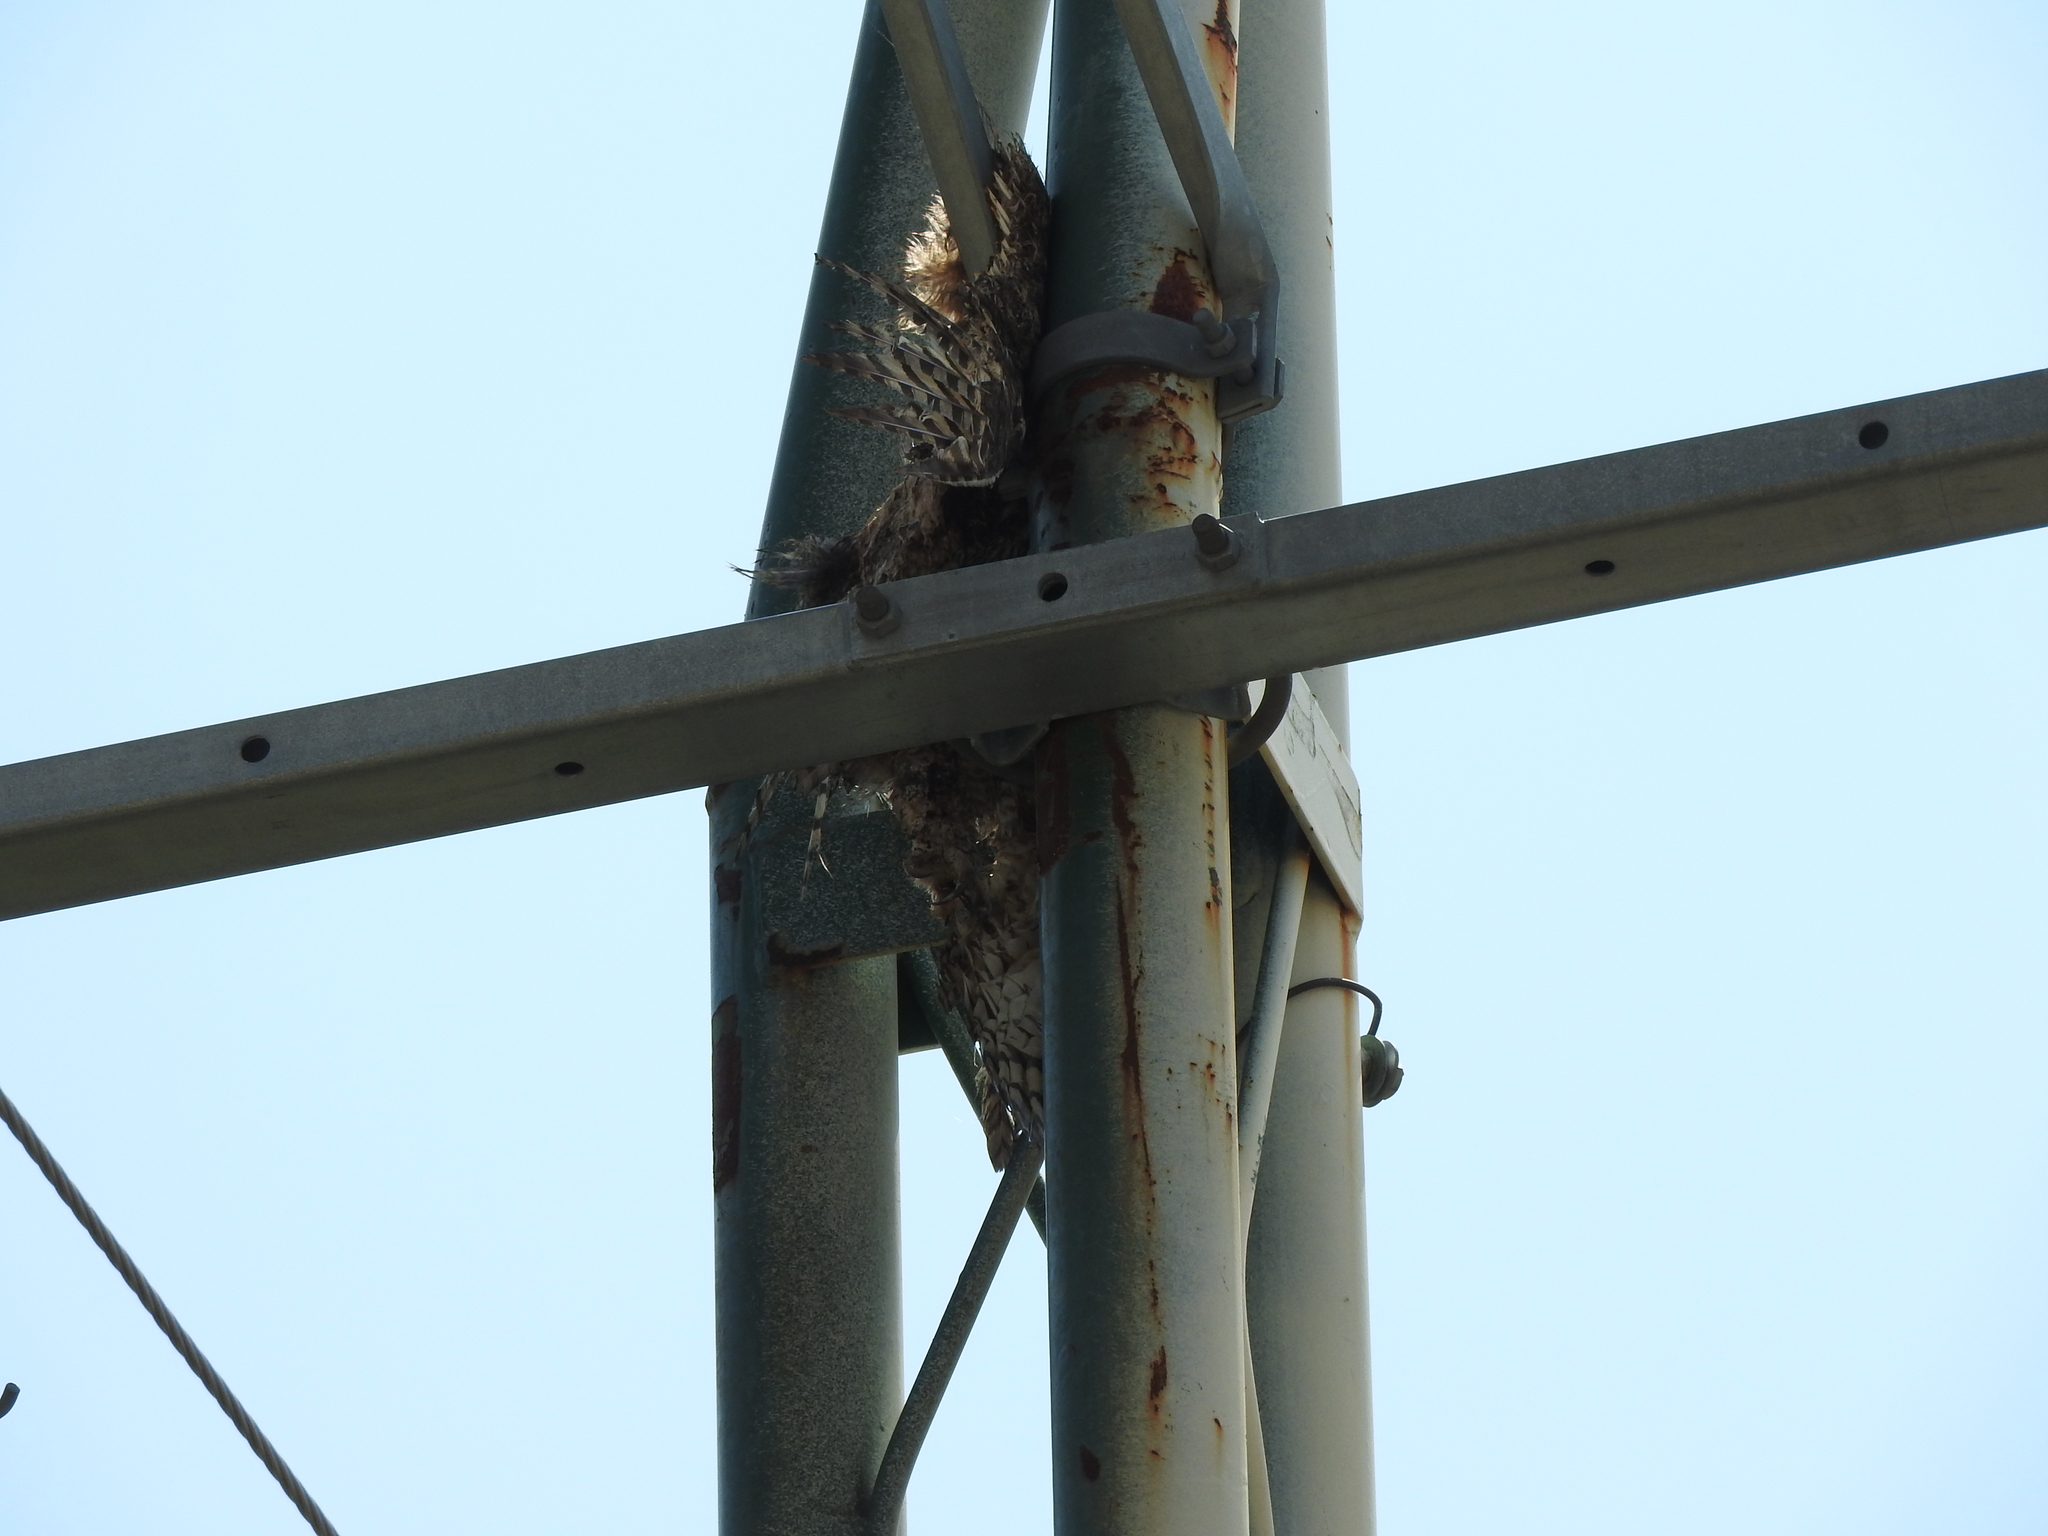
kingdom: Animalia
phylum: Chordata
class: Aves
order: Strigiformes
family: Strigidae
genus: Bubo
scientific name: Bubo virginianus
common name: Great horned owl
